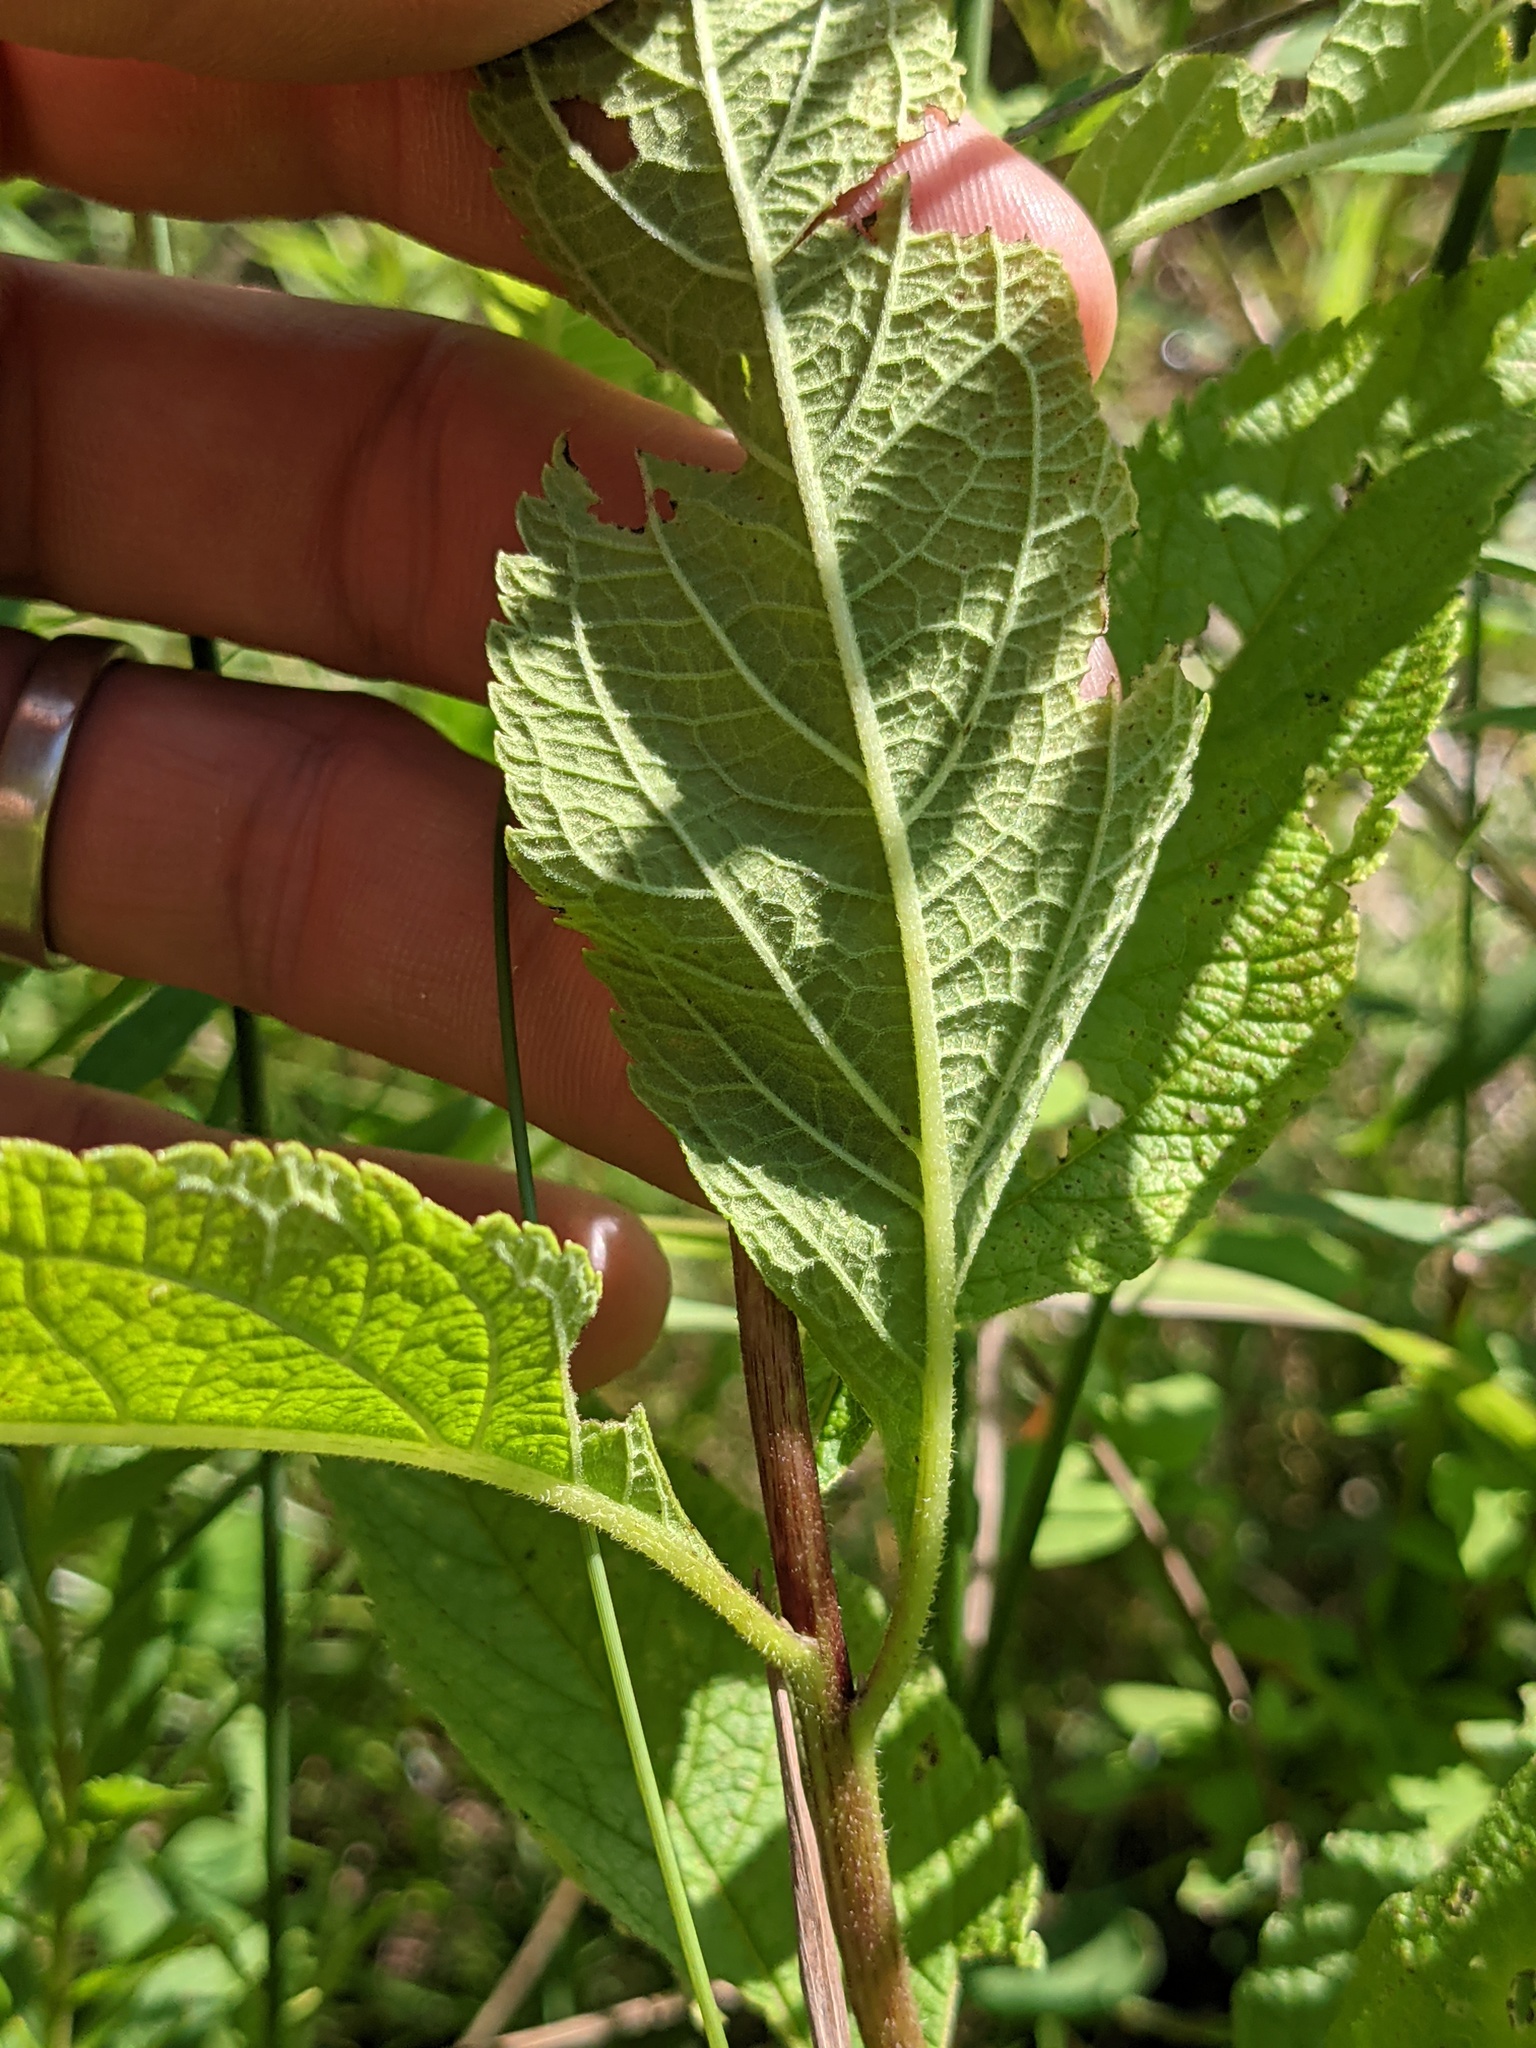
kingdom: Plantae
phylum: Tracheophyta
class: Magnoliopsida
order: Asterales
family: Asteraceae
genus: Eutrochium
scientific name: Eutrochium maculatum
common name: Spotted joe pye weed
